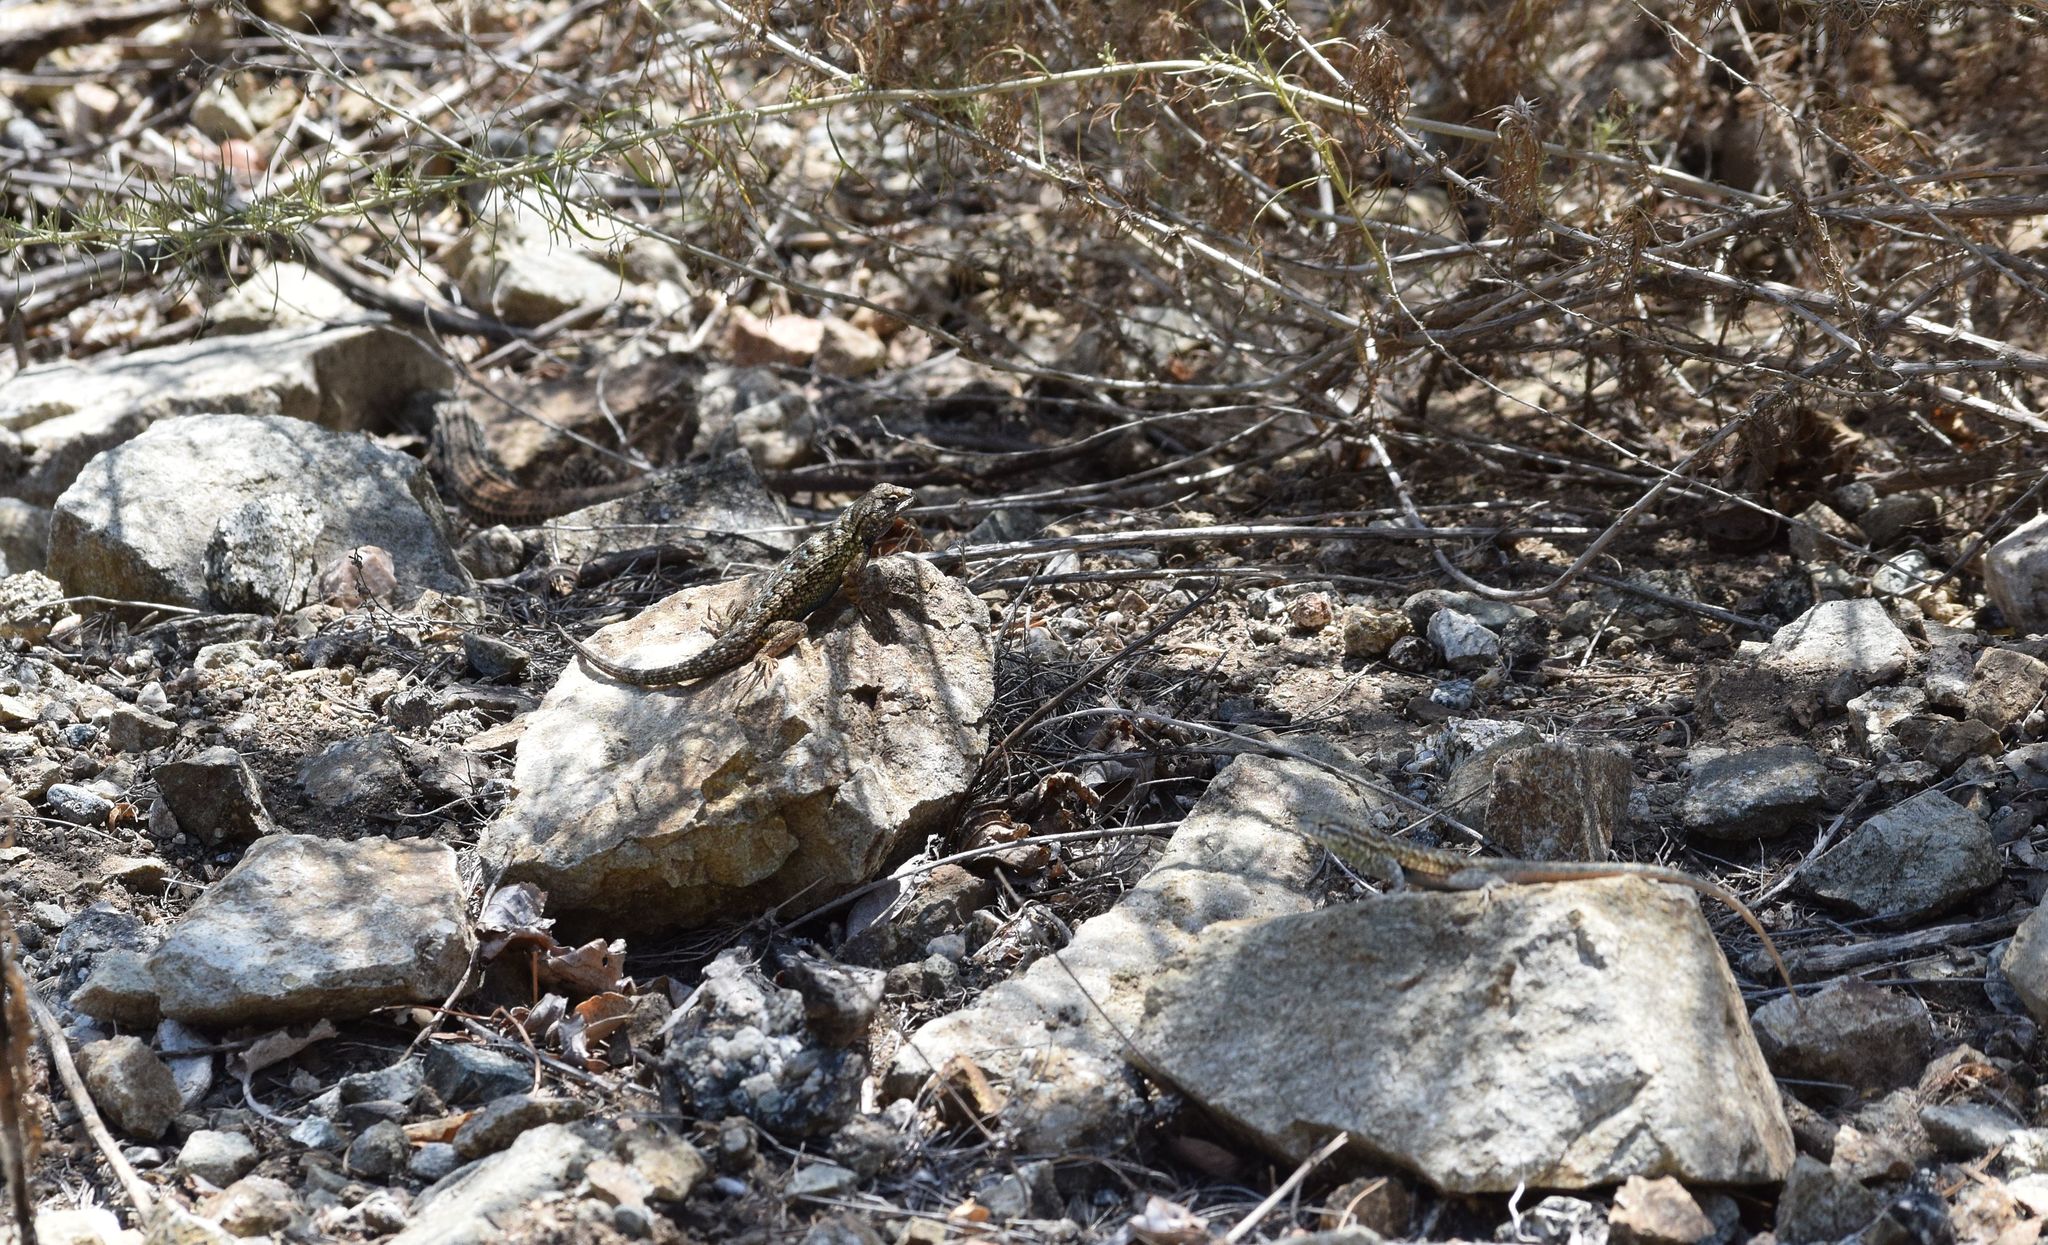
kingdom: Animalia
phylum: Chordata
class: Squamata
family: Phrynosomatidae
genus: Sceloporus
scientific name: Sceloporus occidentalis
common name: Western fence lizard
